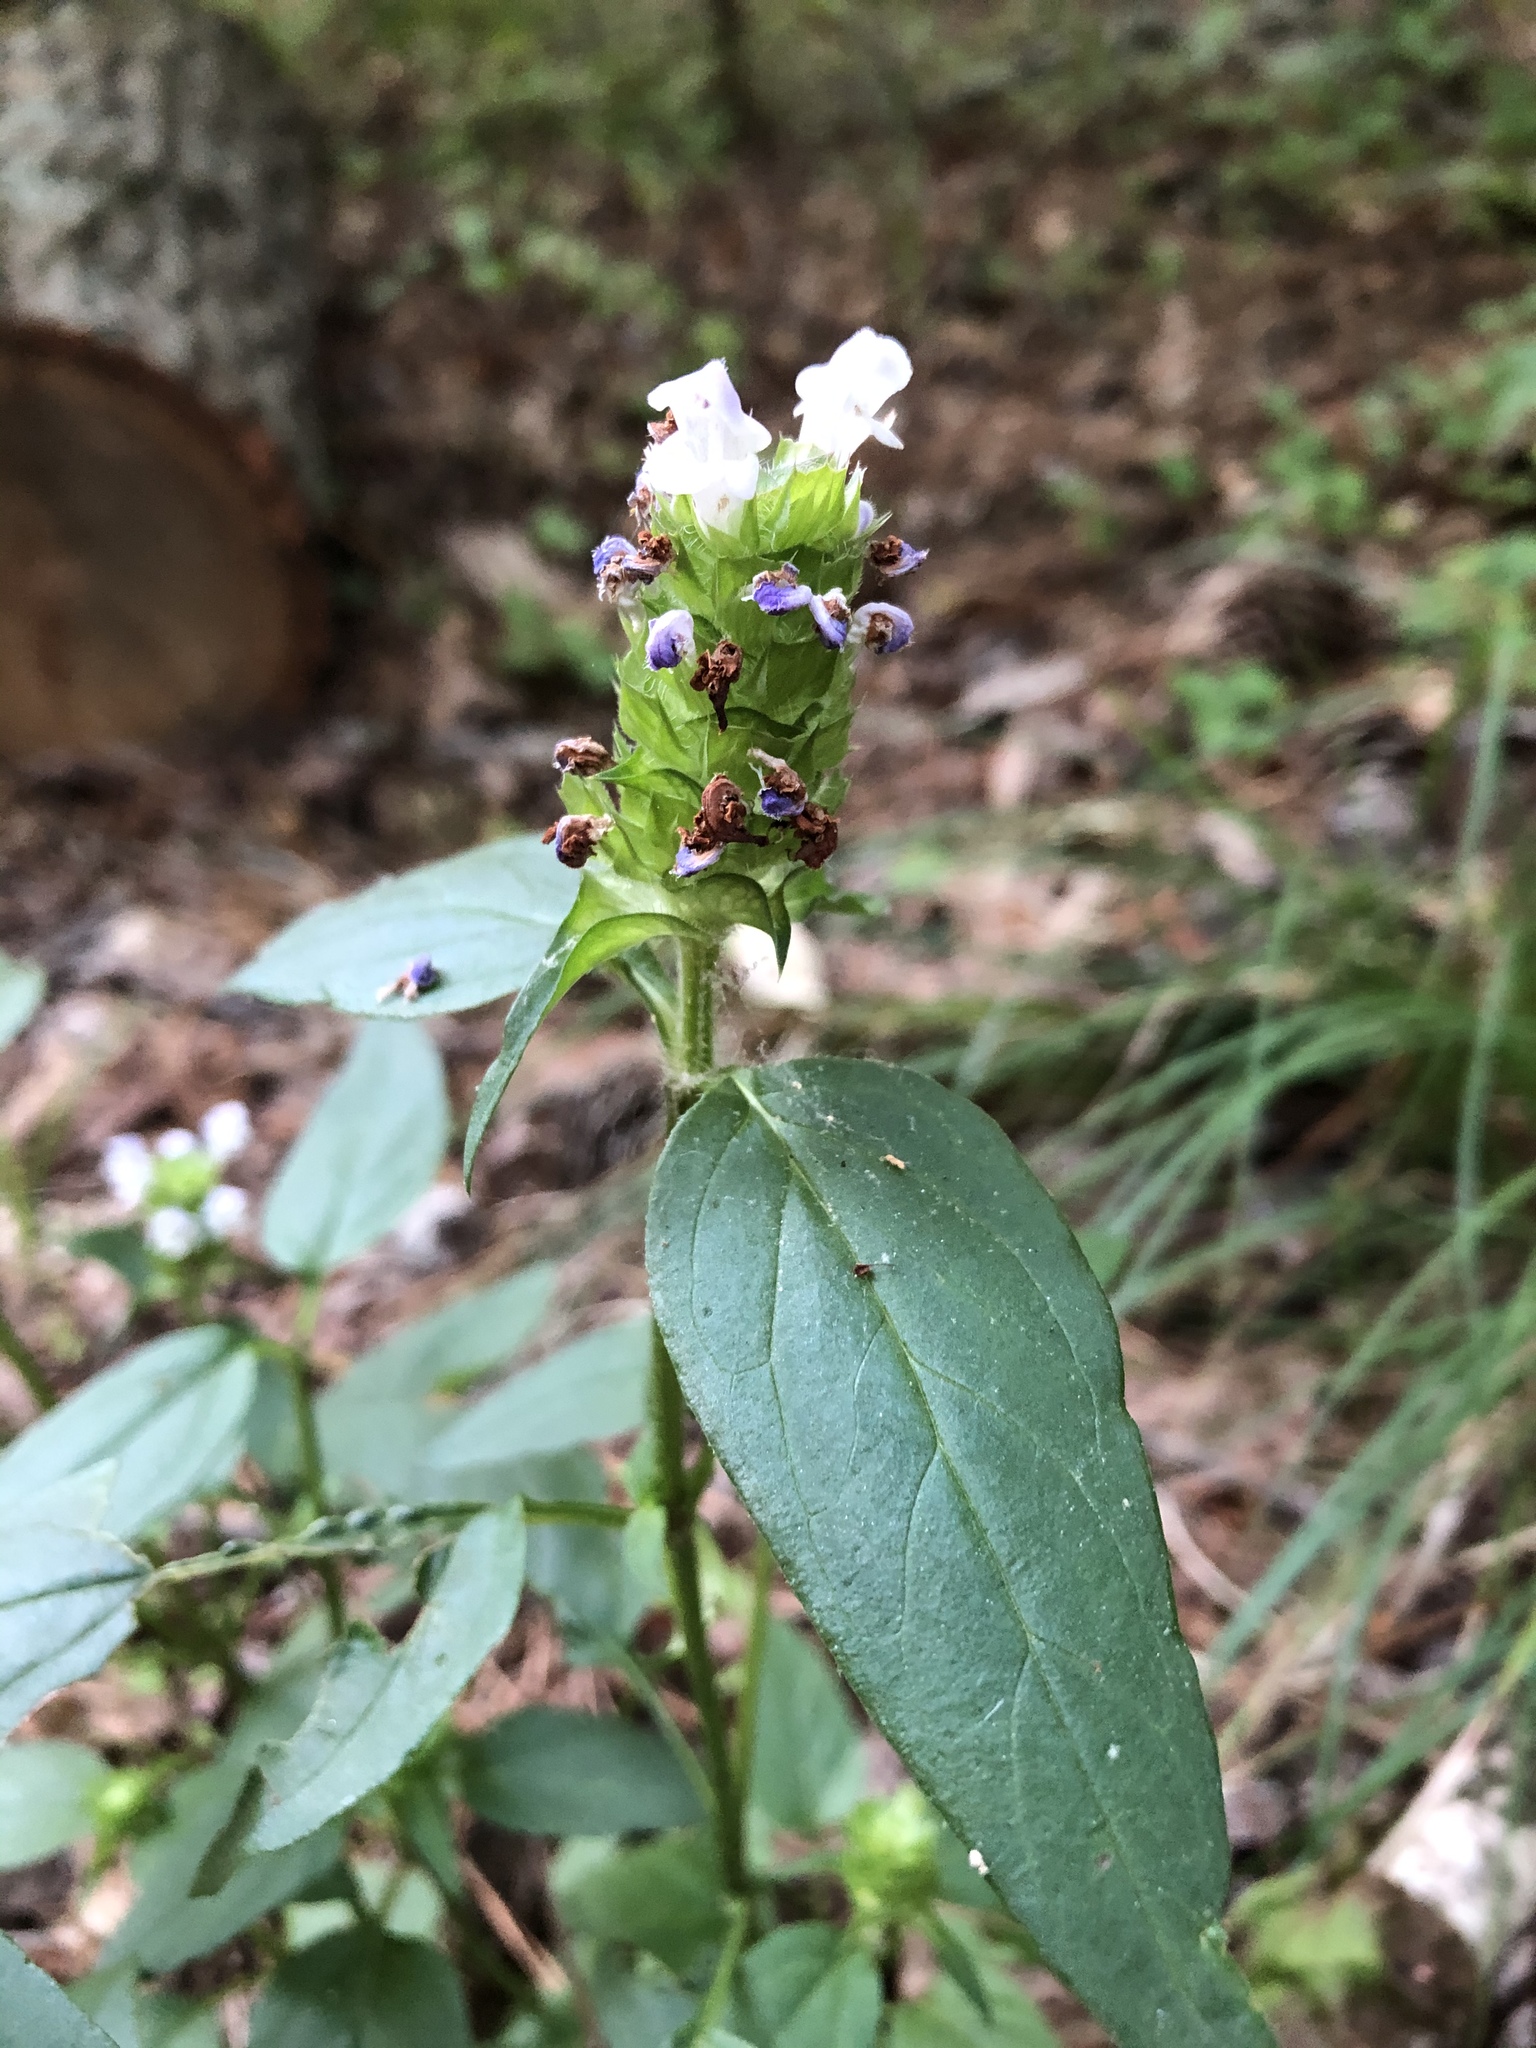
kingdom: Plantae
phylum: Tracheophyta
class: Magnoliopsida
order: Lamiales
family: Lamiaceae
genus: Prunella
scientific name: Prunella vulgaris
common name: Heal-all
